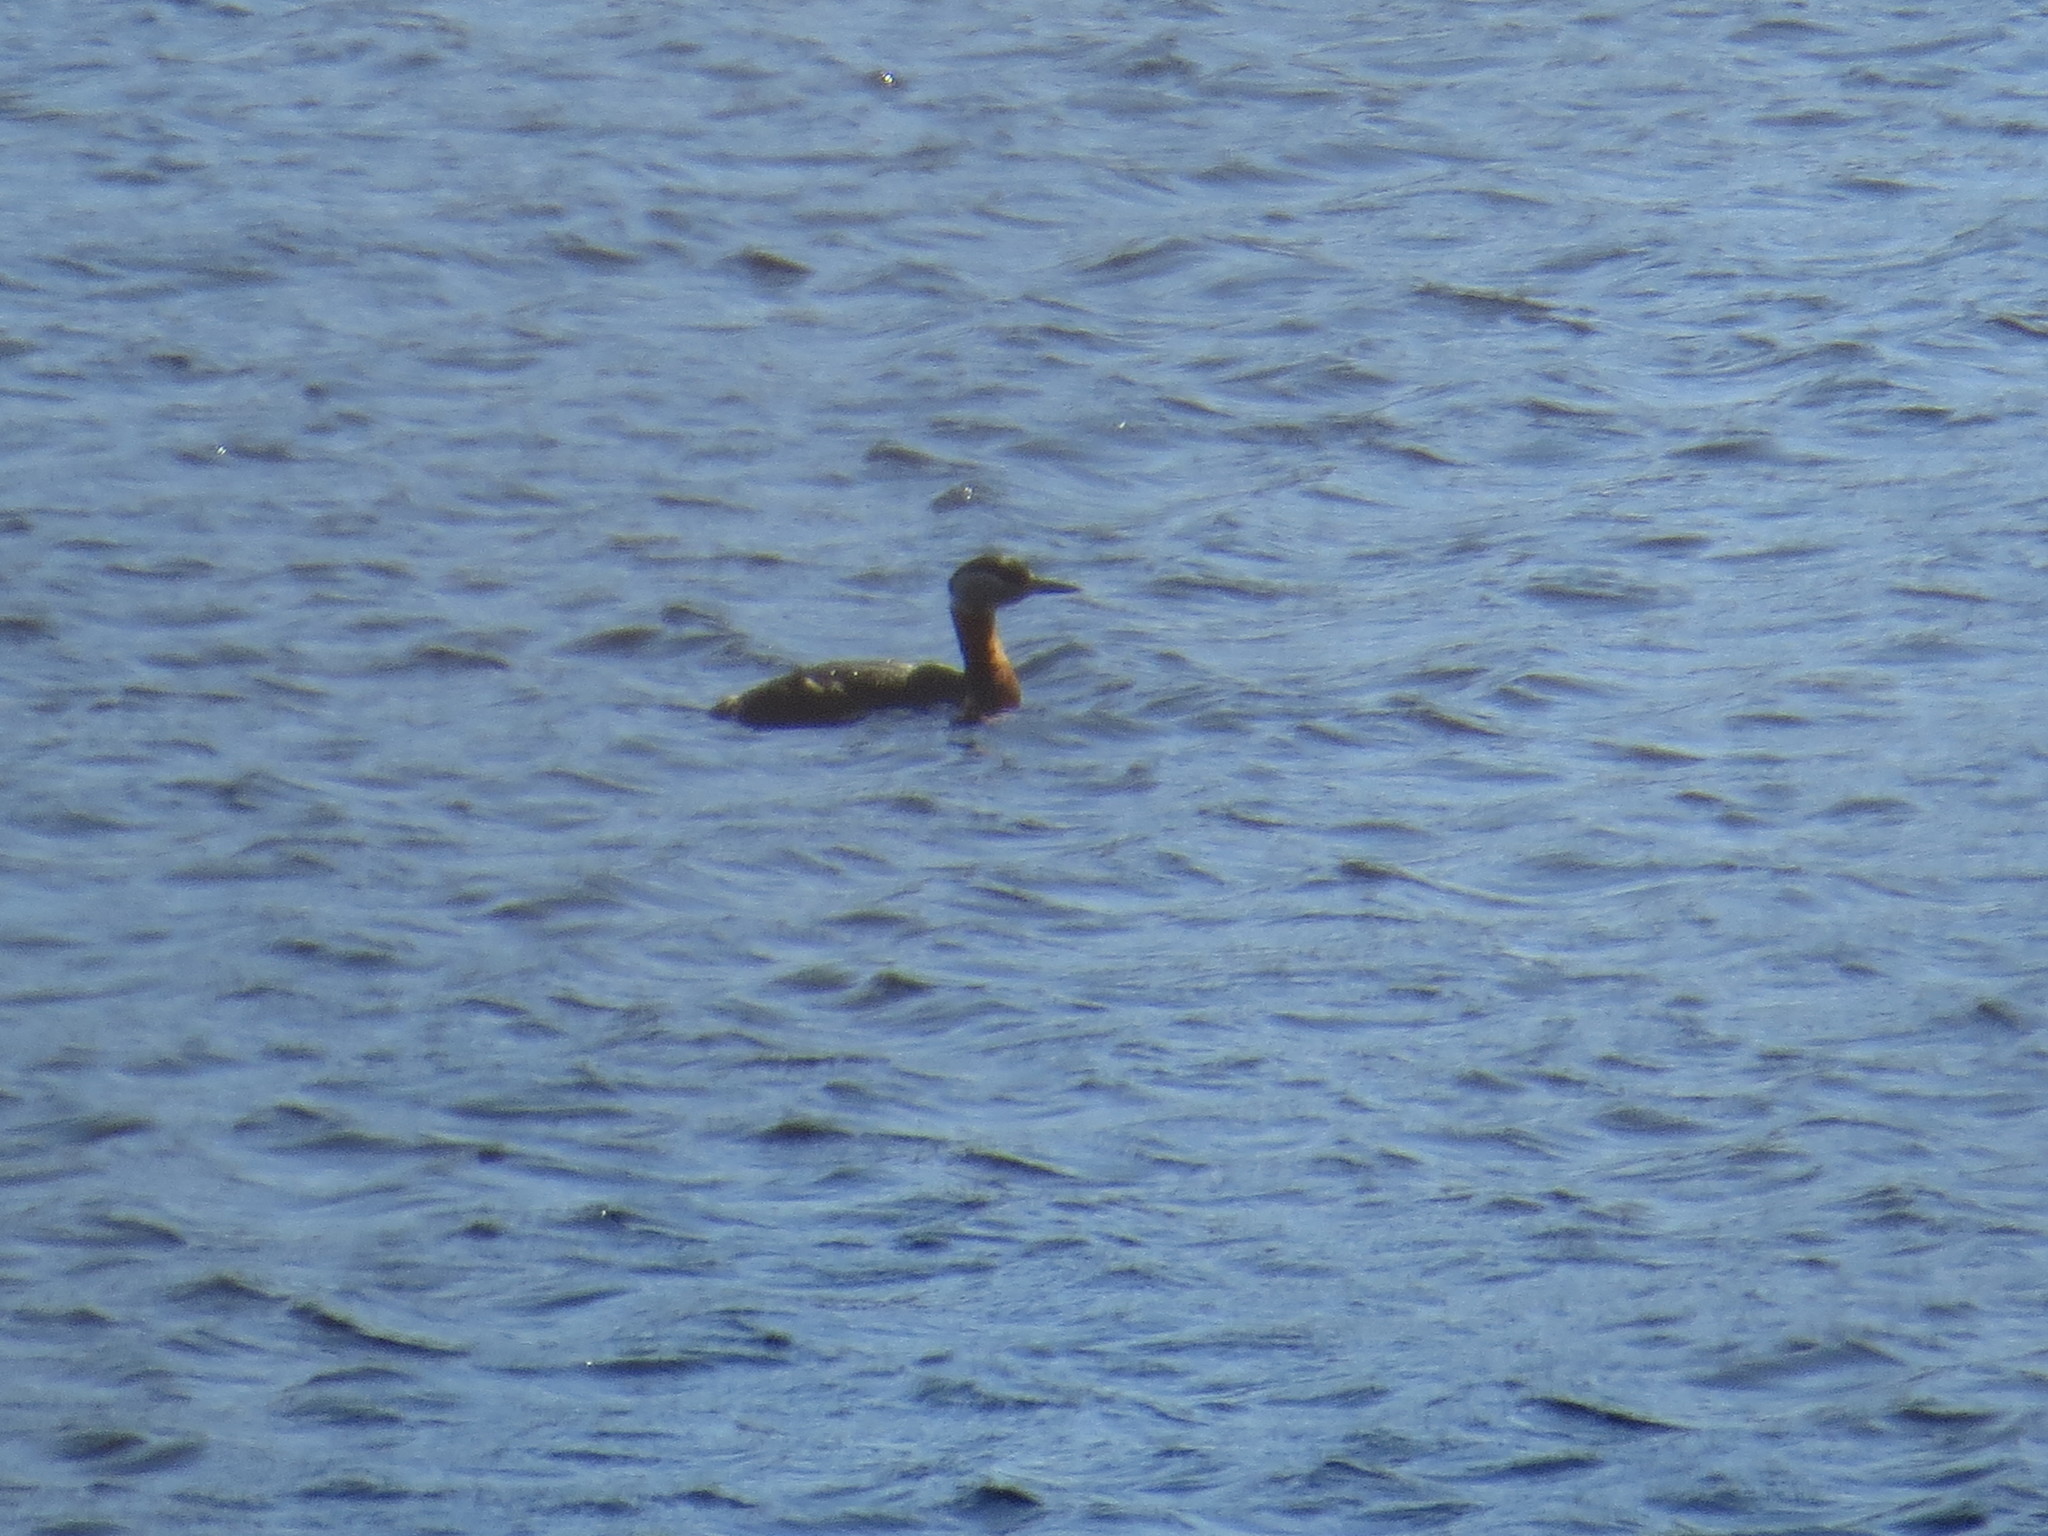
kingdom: Animalia
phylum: Chordata
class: Aves
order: Podicipediformes
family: Podicipedidae
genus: Podiceps
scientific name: Podiceps grisegena
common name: Red-necked grebe
